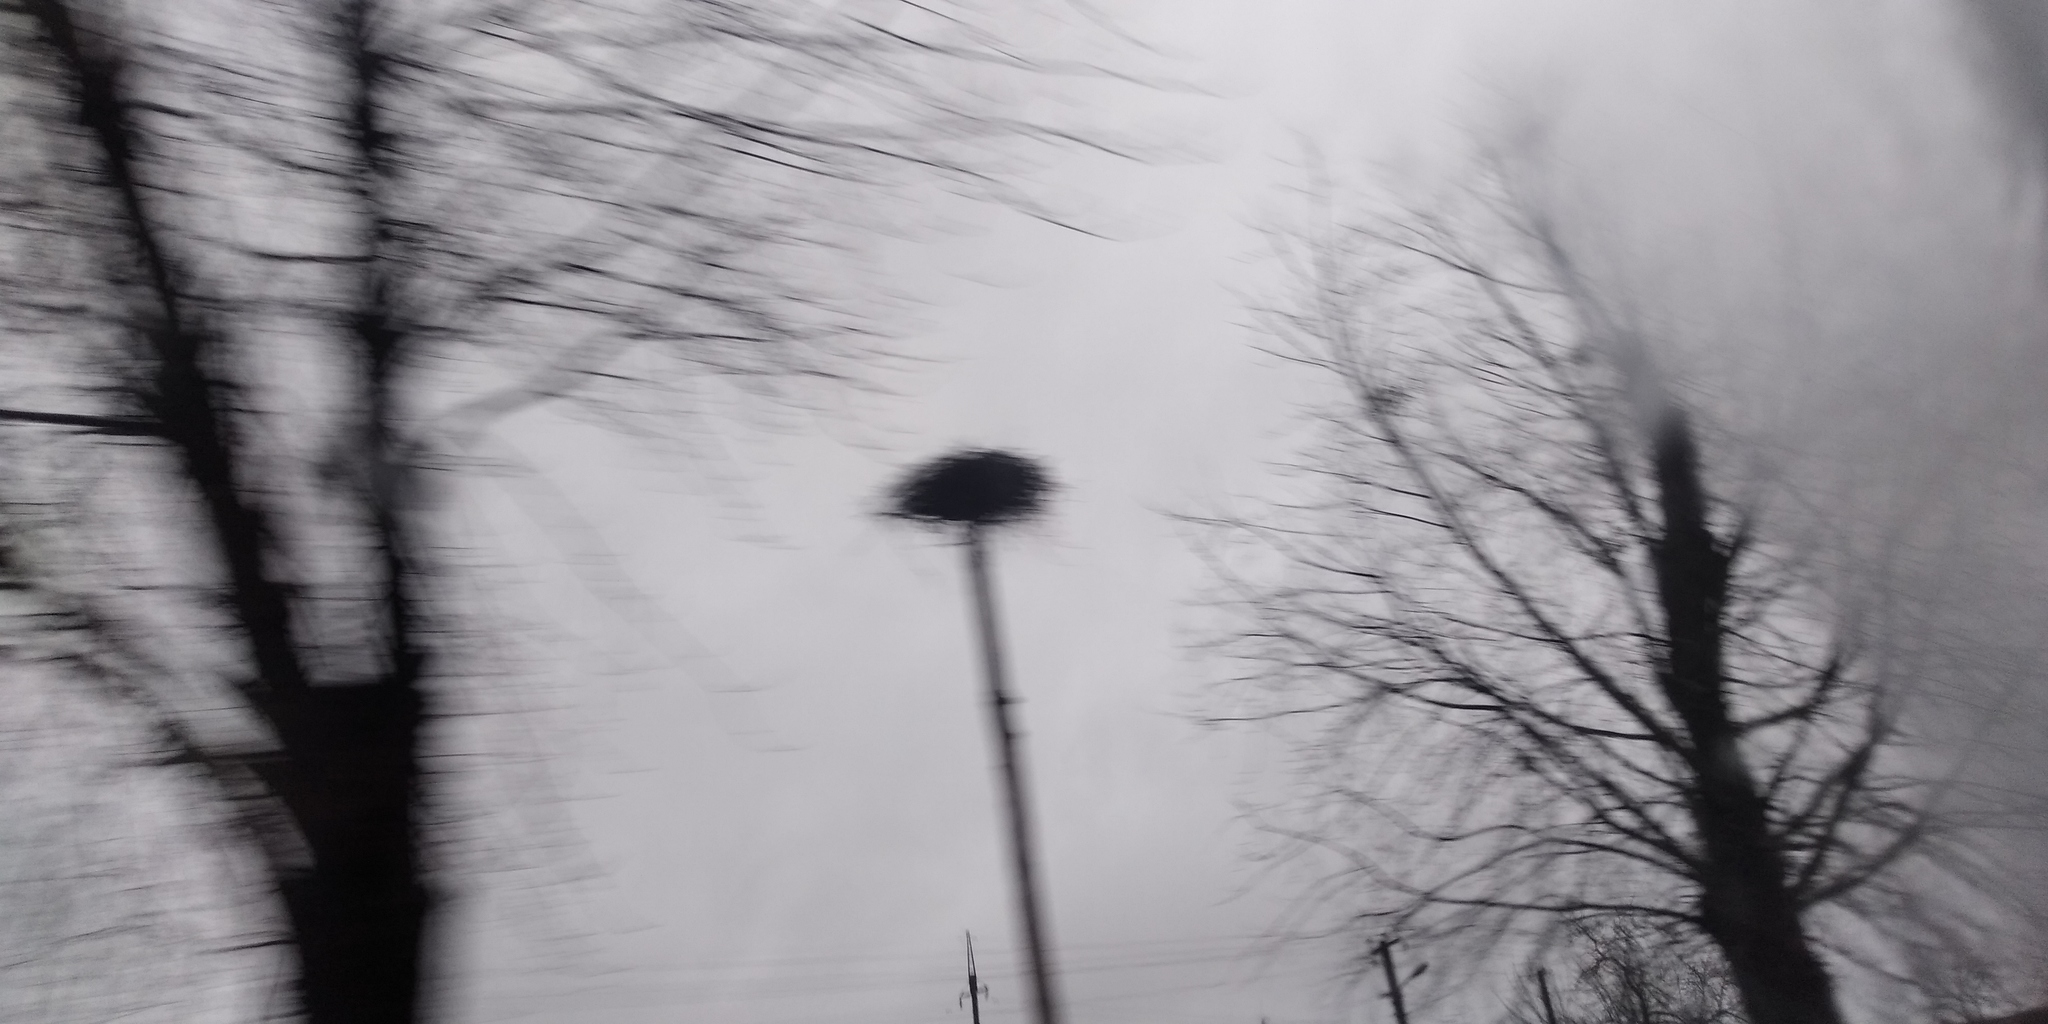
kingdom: Animalia
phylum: Chordata
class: Aves
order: Ciconiiformes
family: Ciconiidae
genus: Ciconia
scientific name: Ciconia ciconia
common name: White stork
